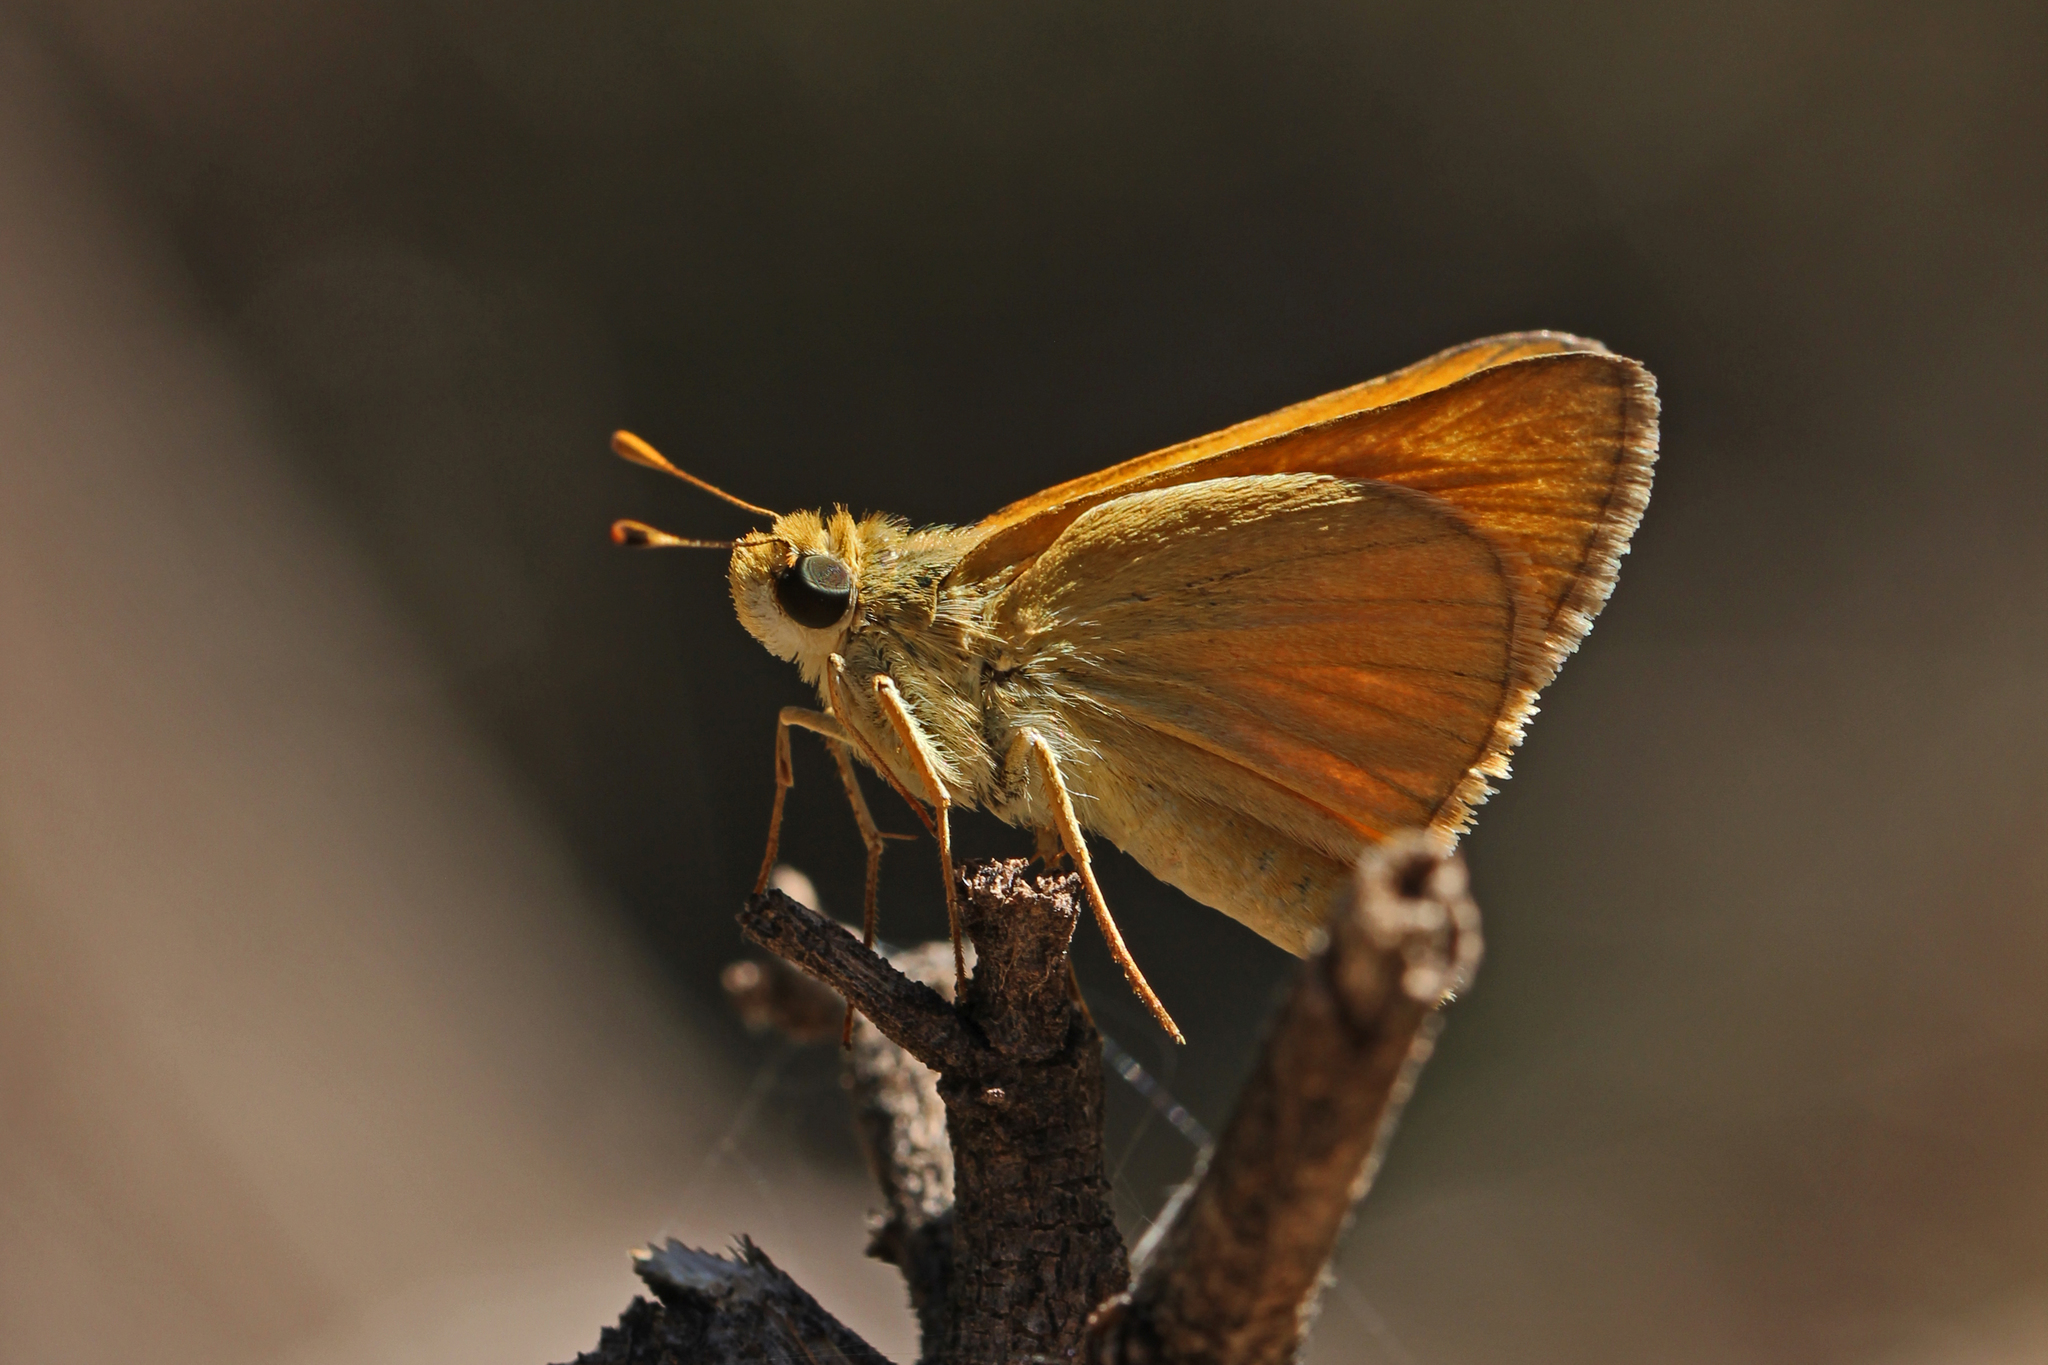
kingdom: Animalia
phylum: Arthropoda
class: Insecta
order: Lepidoptera
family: Hesperiidae
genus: Ochlodes
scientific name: Ochlodes sylvanoides
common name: Woodland skipper
